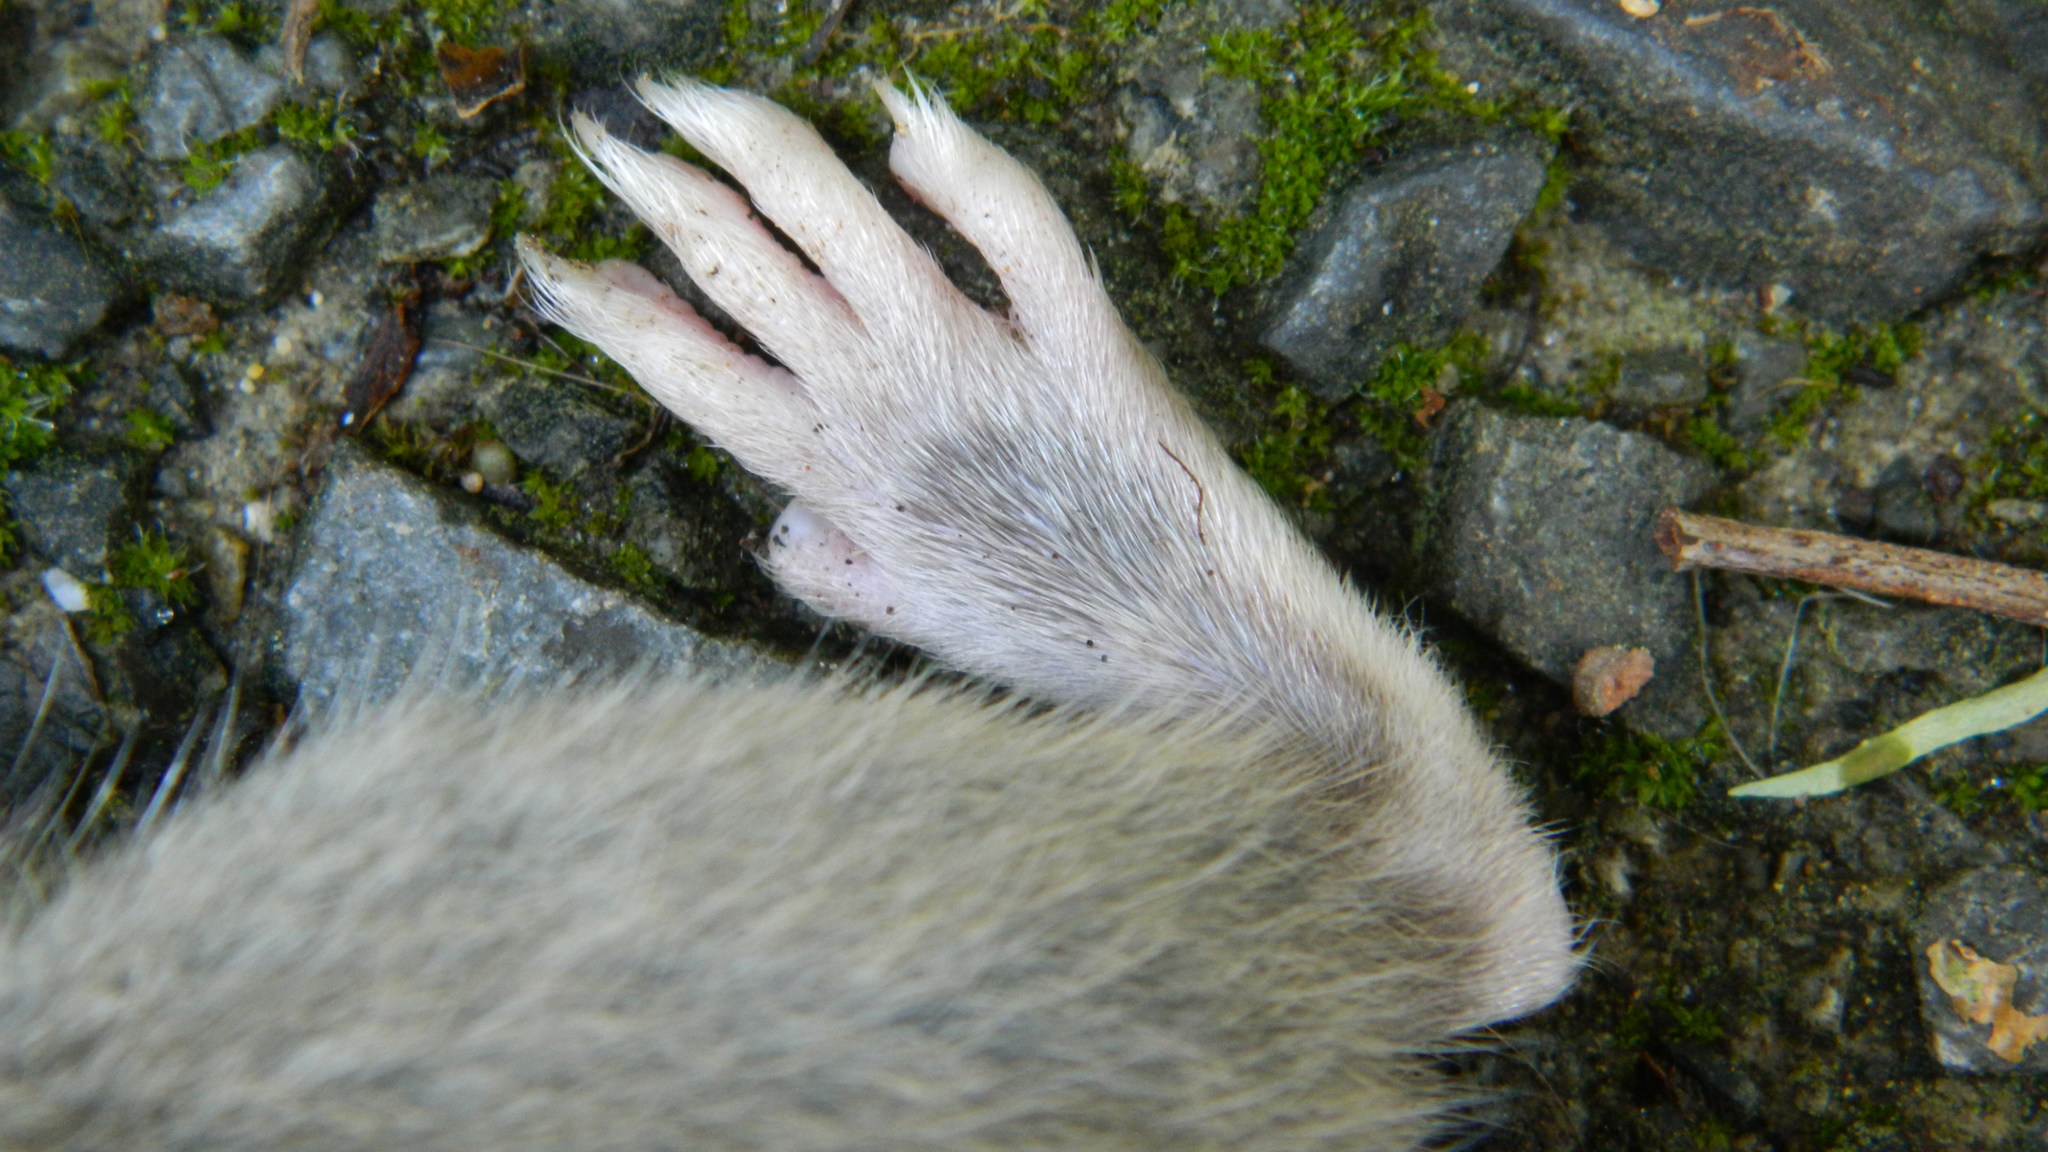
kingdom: Animalia
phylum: Chordata
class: Mammalia
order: Rodentia
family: Muridae
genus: Rattus
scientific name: Rattus rattus
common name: Black rat
